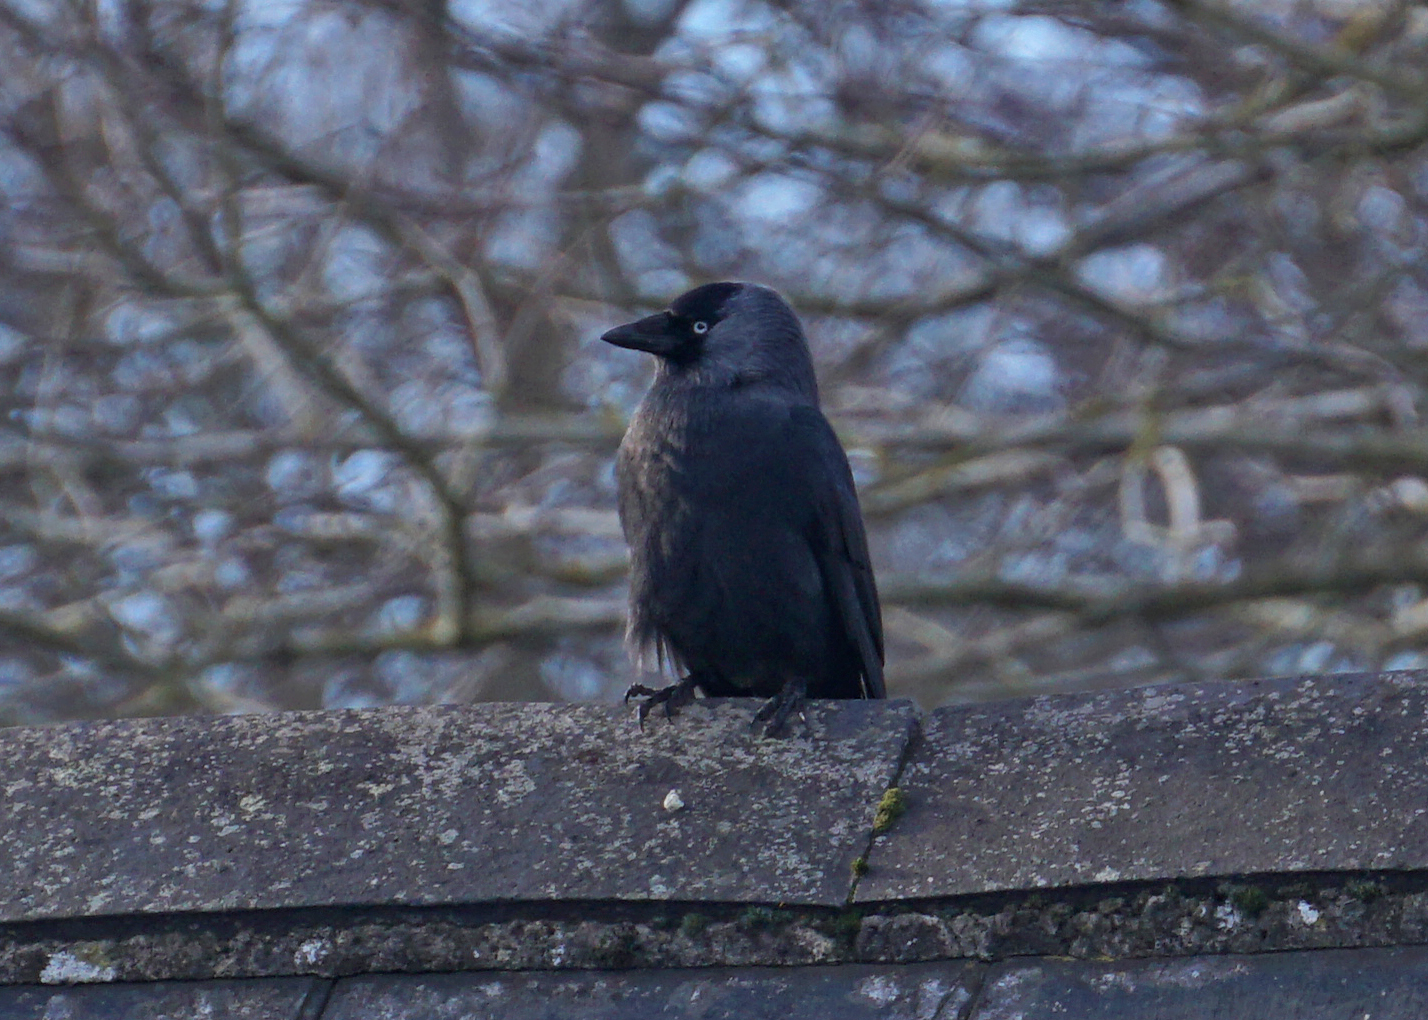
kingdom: Animalia
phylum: Chordata
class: Aves
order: Passeriformes
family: Corvidae
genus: Coloeus
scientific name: Coloeus monedula
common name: Western jackdaw
